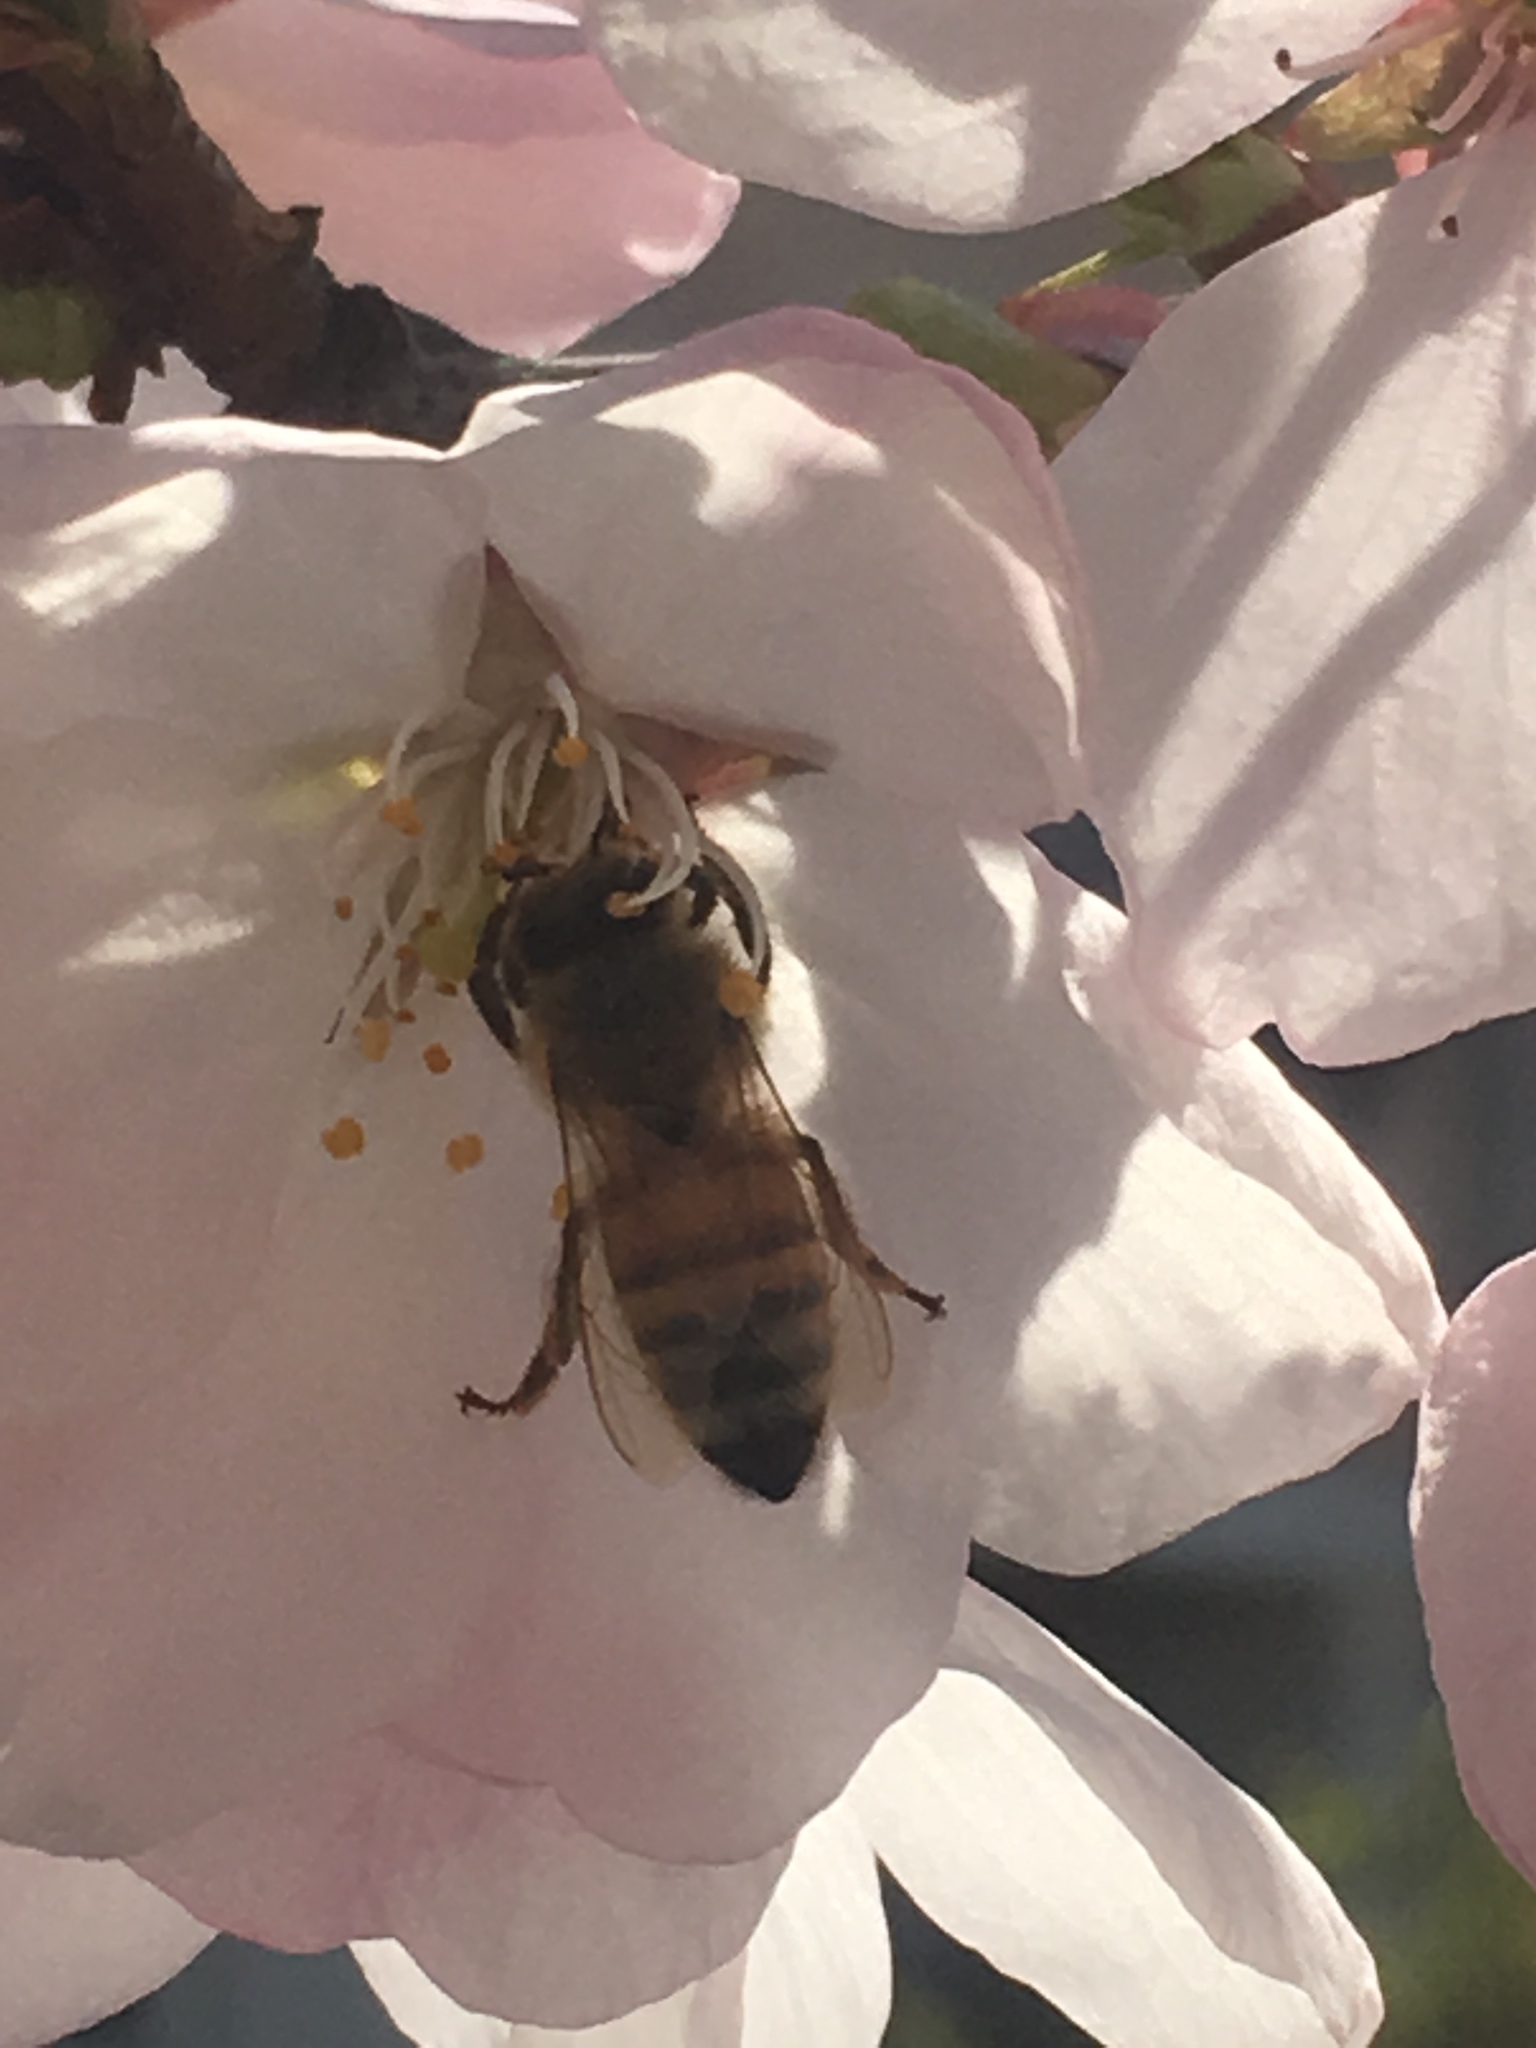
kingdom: Animalia
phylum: Arthropoda
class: Insecta
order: Hymenoptera
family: Apidae
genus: Apis
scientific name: Apis mellifera
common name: Honey bee
